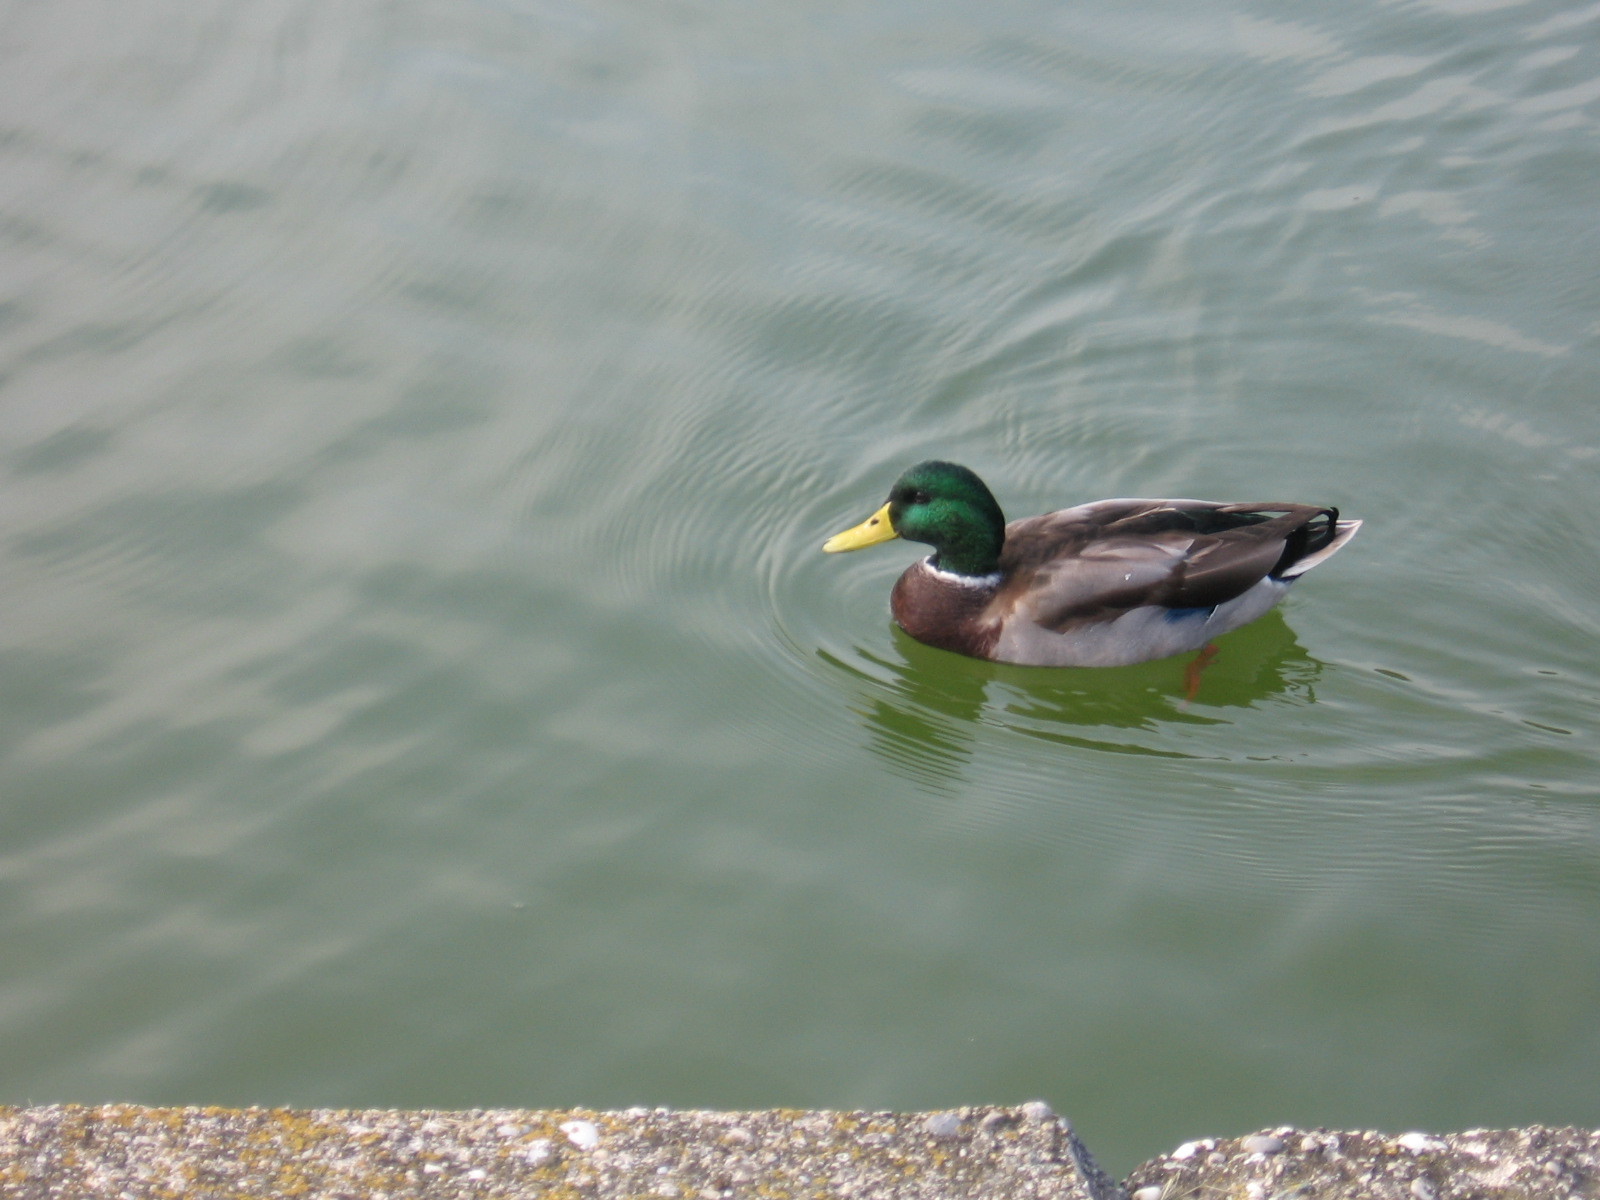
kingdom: Animalia
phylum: Chordata
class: Aves
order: Anseriformes
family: Anatidae
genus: Anas
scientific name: Anas platyrhynchos
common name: Mallard
